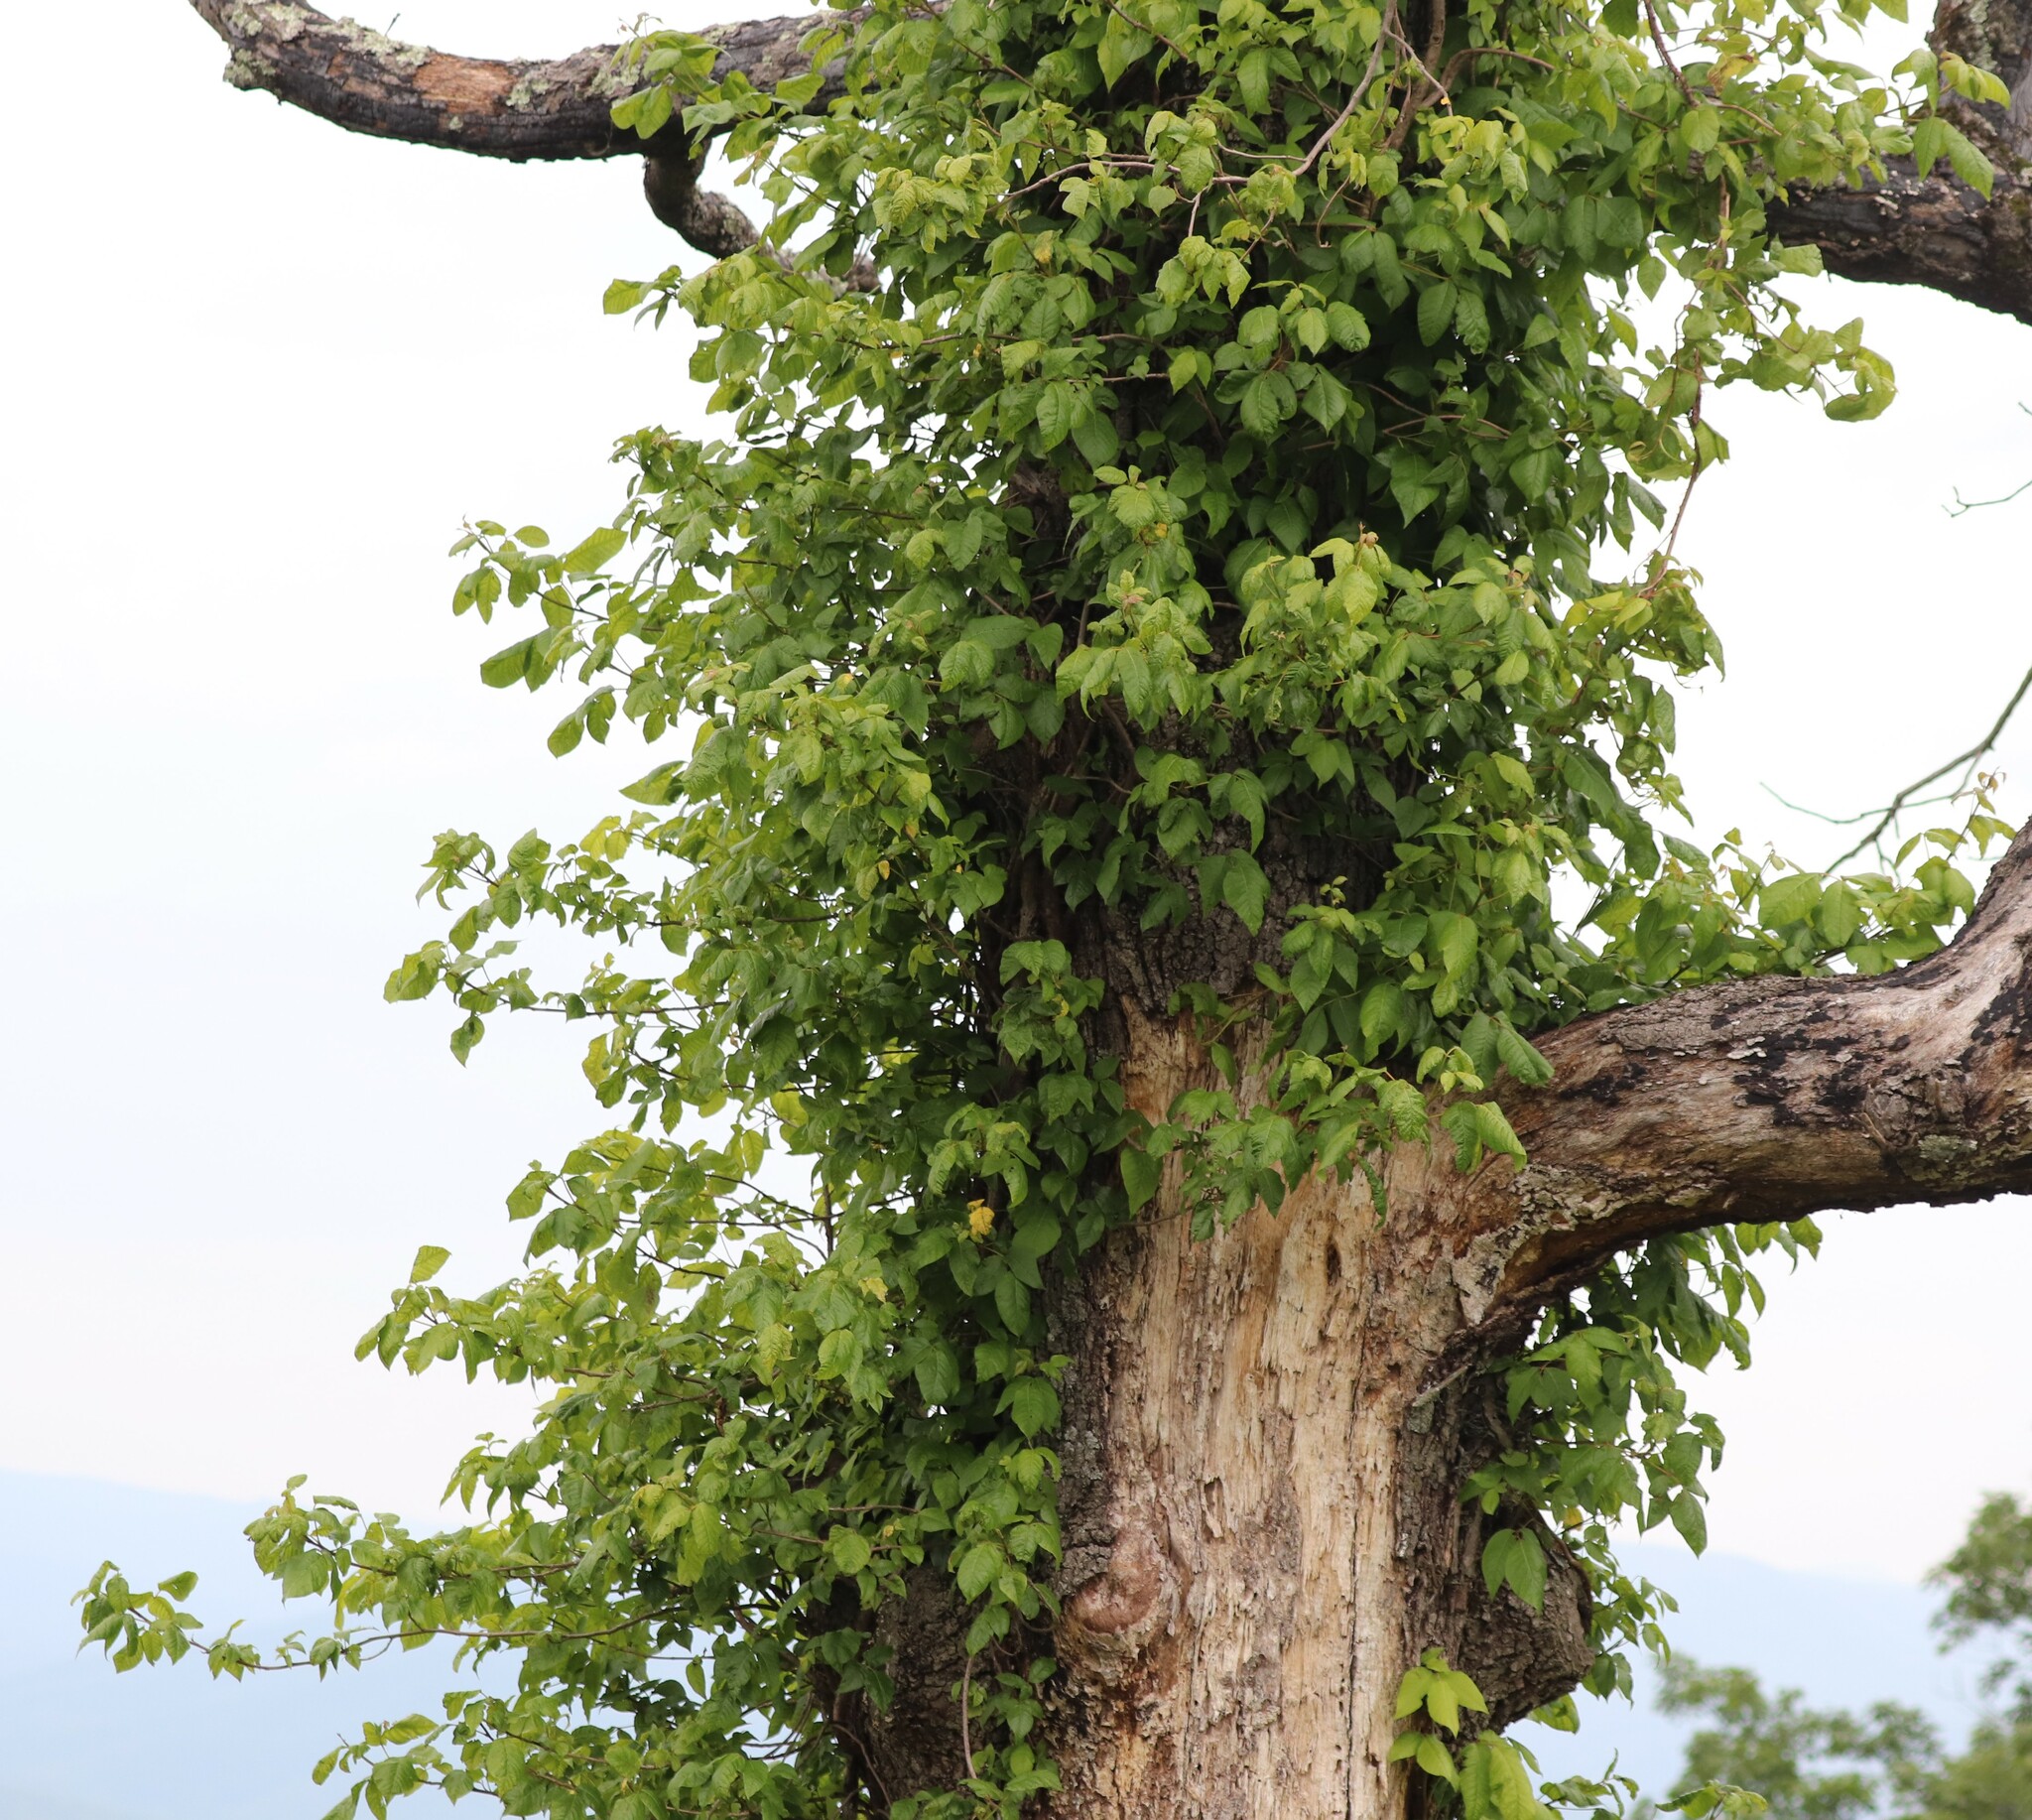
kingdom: Plantae
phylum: Tracheophyta
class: Magnoliopsida
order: Sapindales
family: Anacardiaceae
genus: Toxicodendron
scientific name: Toxicodendron radicans
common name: Poison ivy
